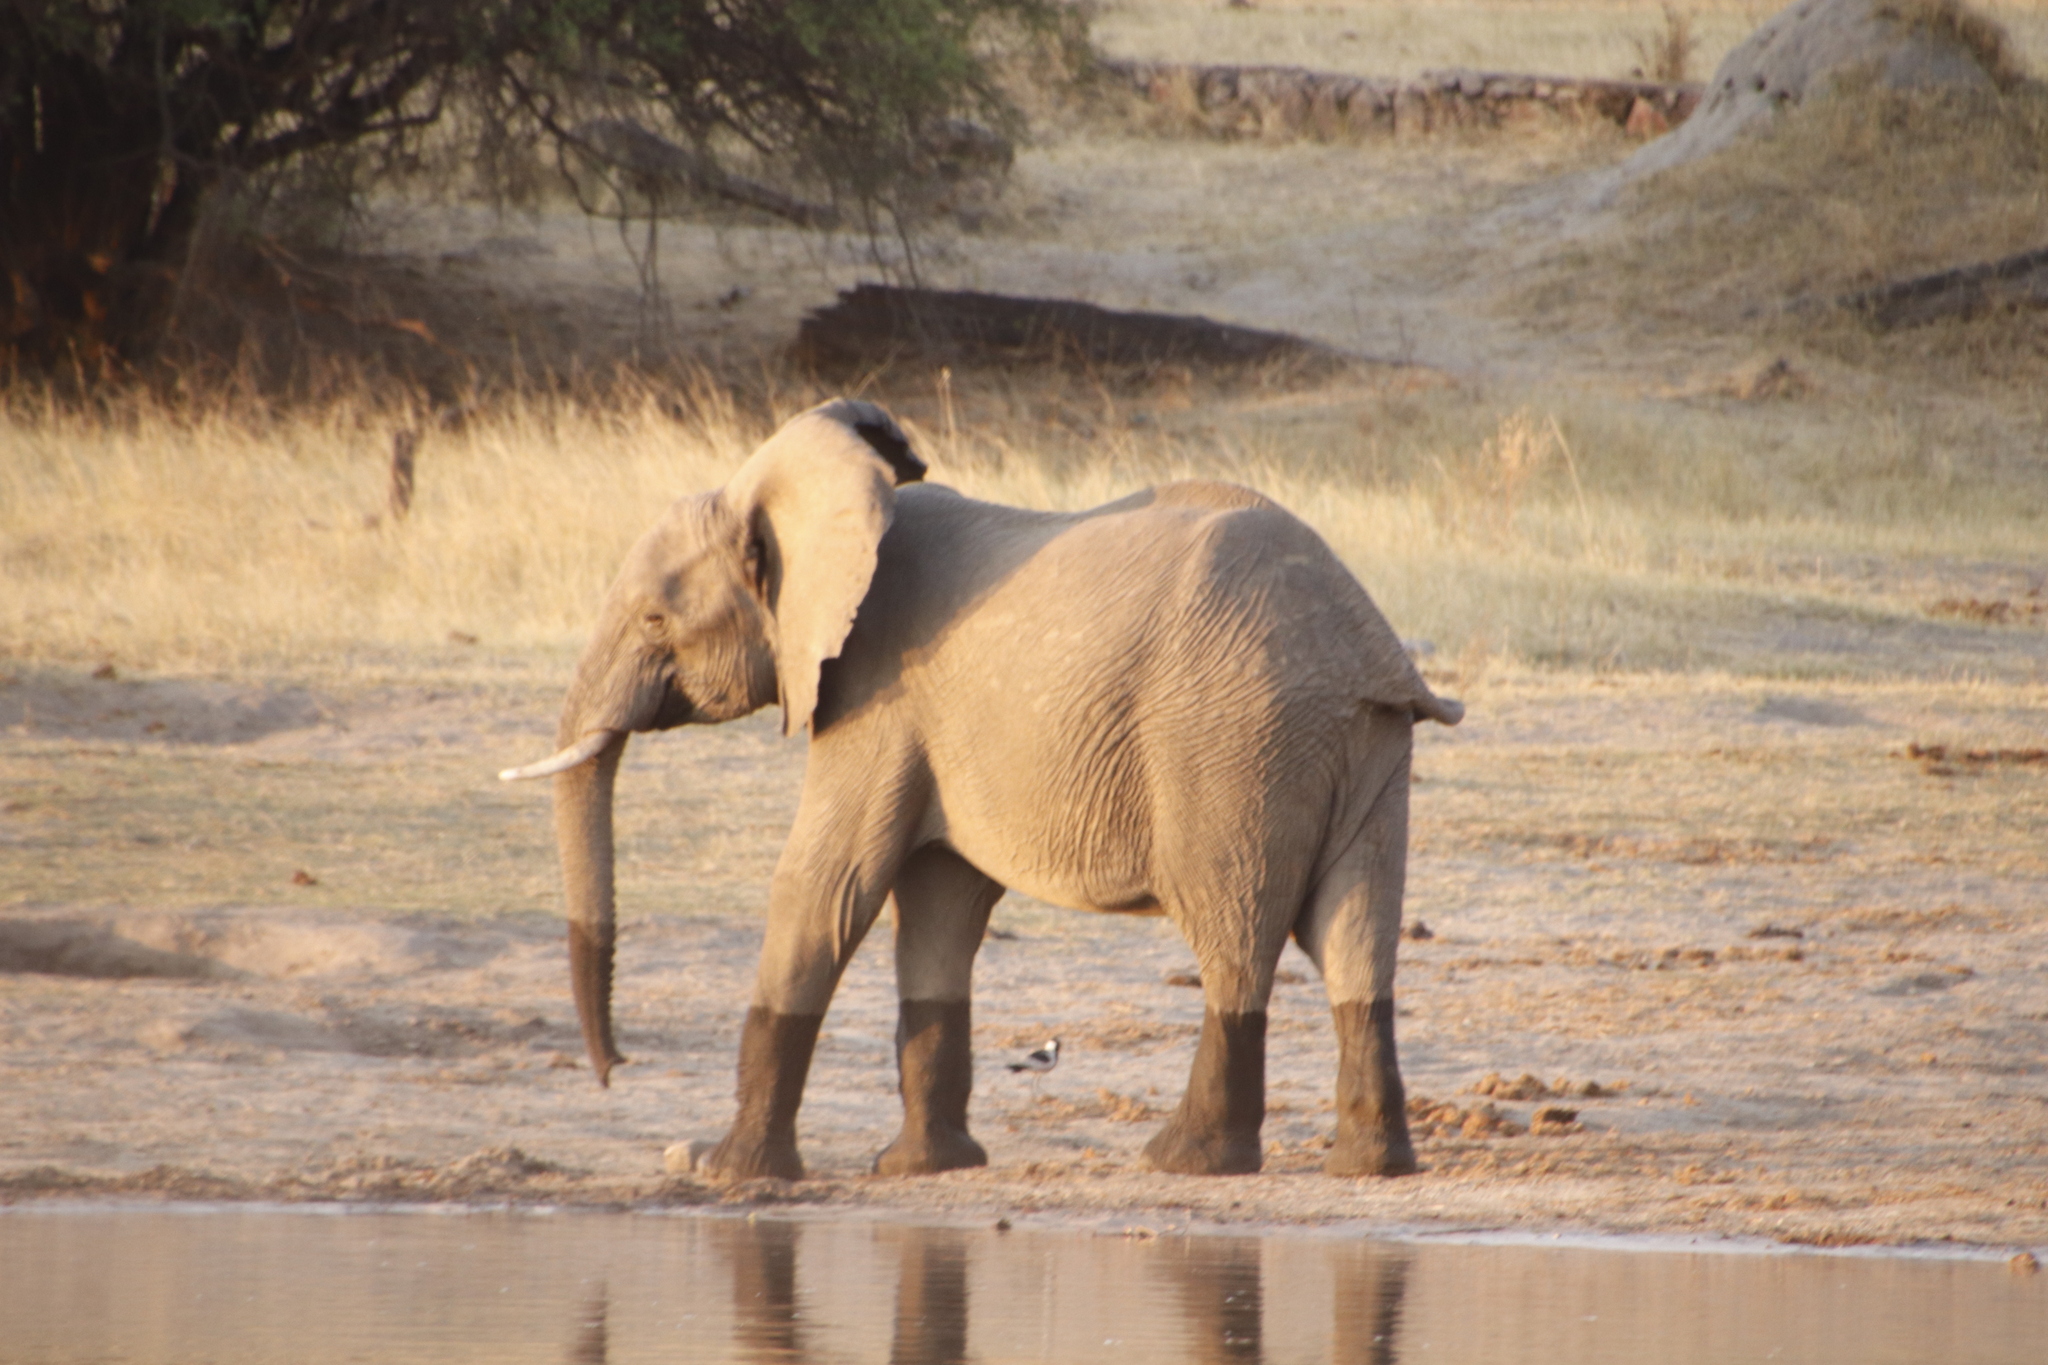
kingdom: Animalia
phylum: Chordata
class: Mammalia
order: Proboscidea
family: Elephantidae
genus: Loxodonta
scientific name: Loxodonta africana
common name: African elephant
